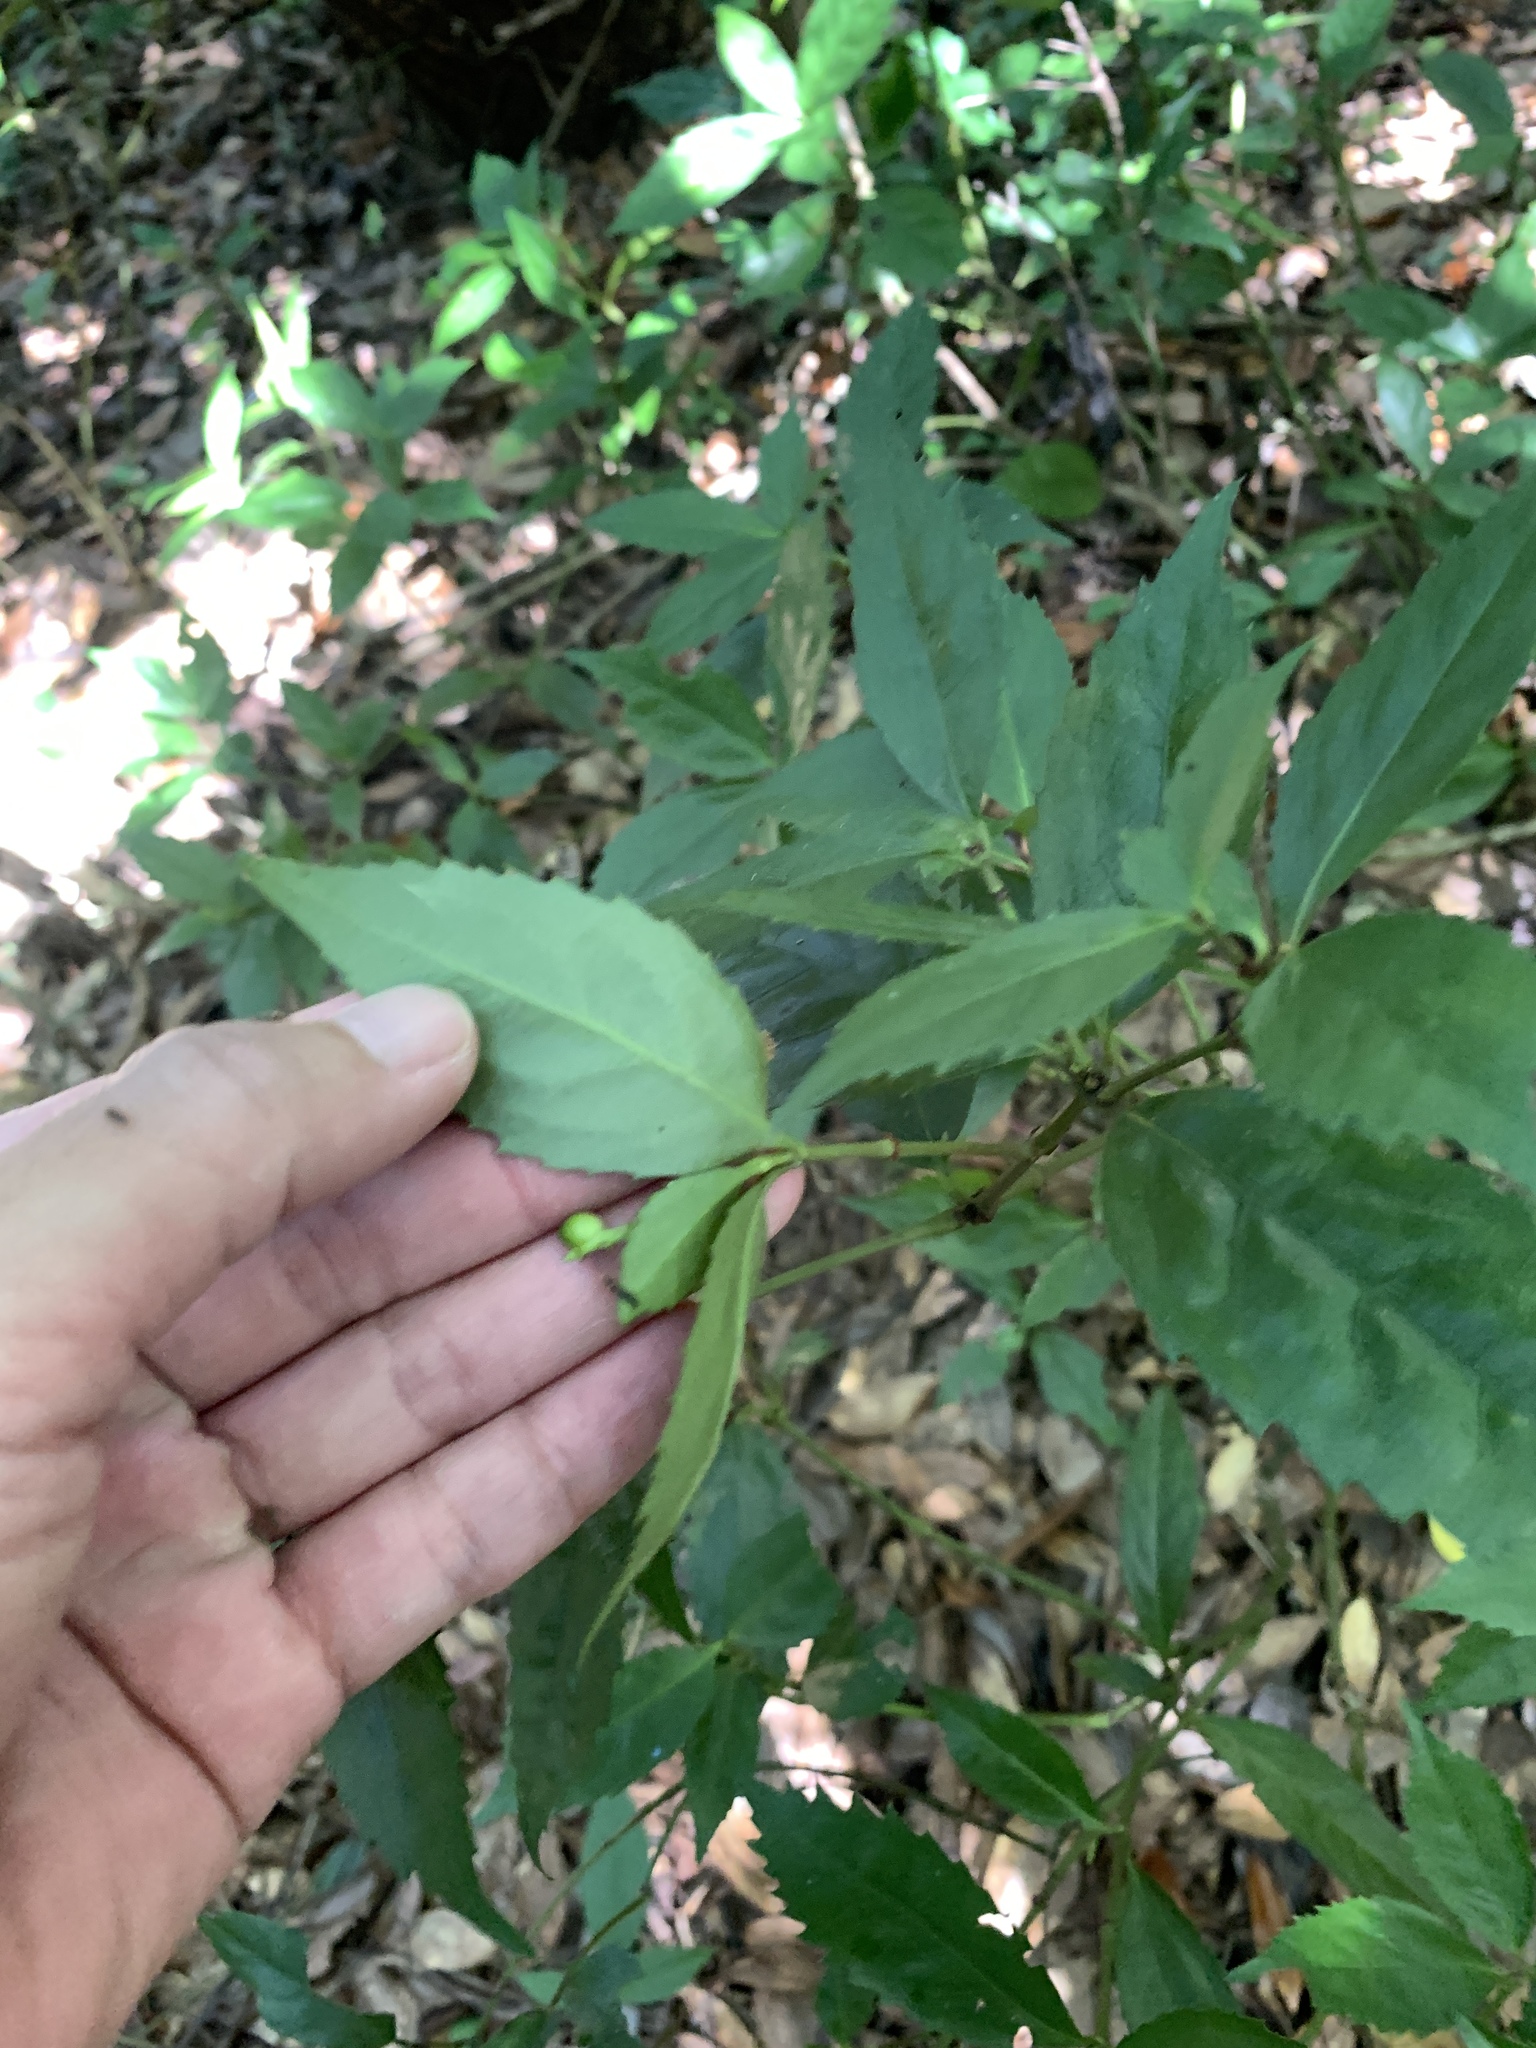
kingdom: Plantae
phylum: Tracheophyta
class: Magnoliopsida
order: Chloranthales
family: Chloranthaceae
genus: Sarcandra
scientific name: Sarcandra glabra
